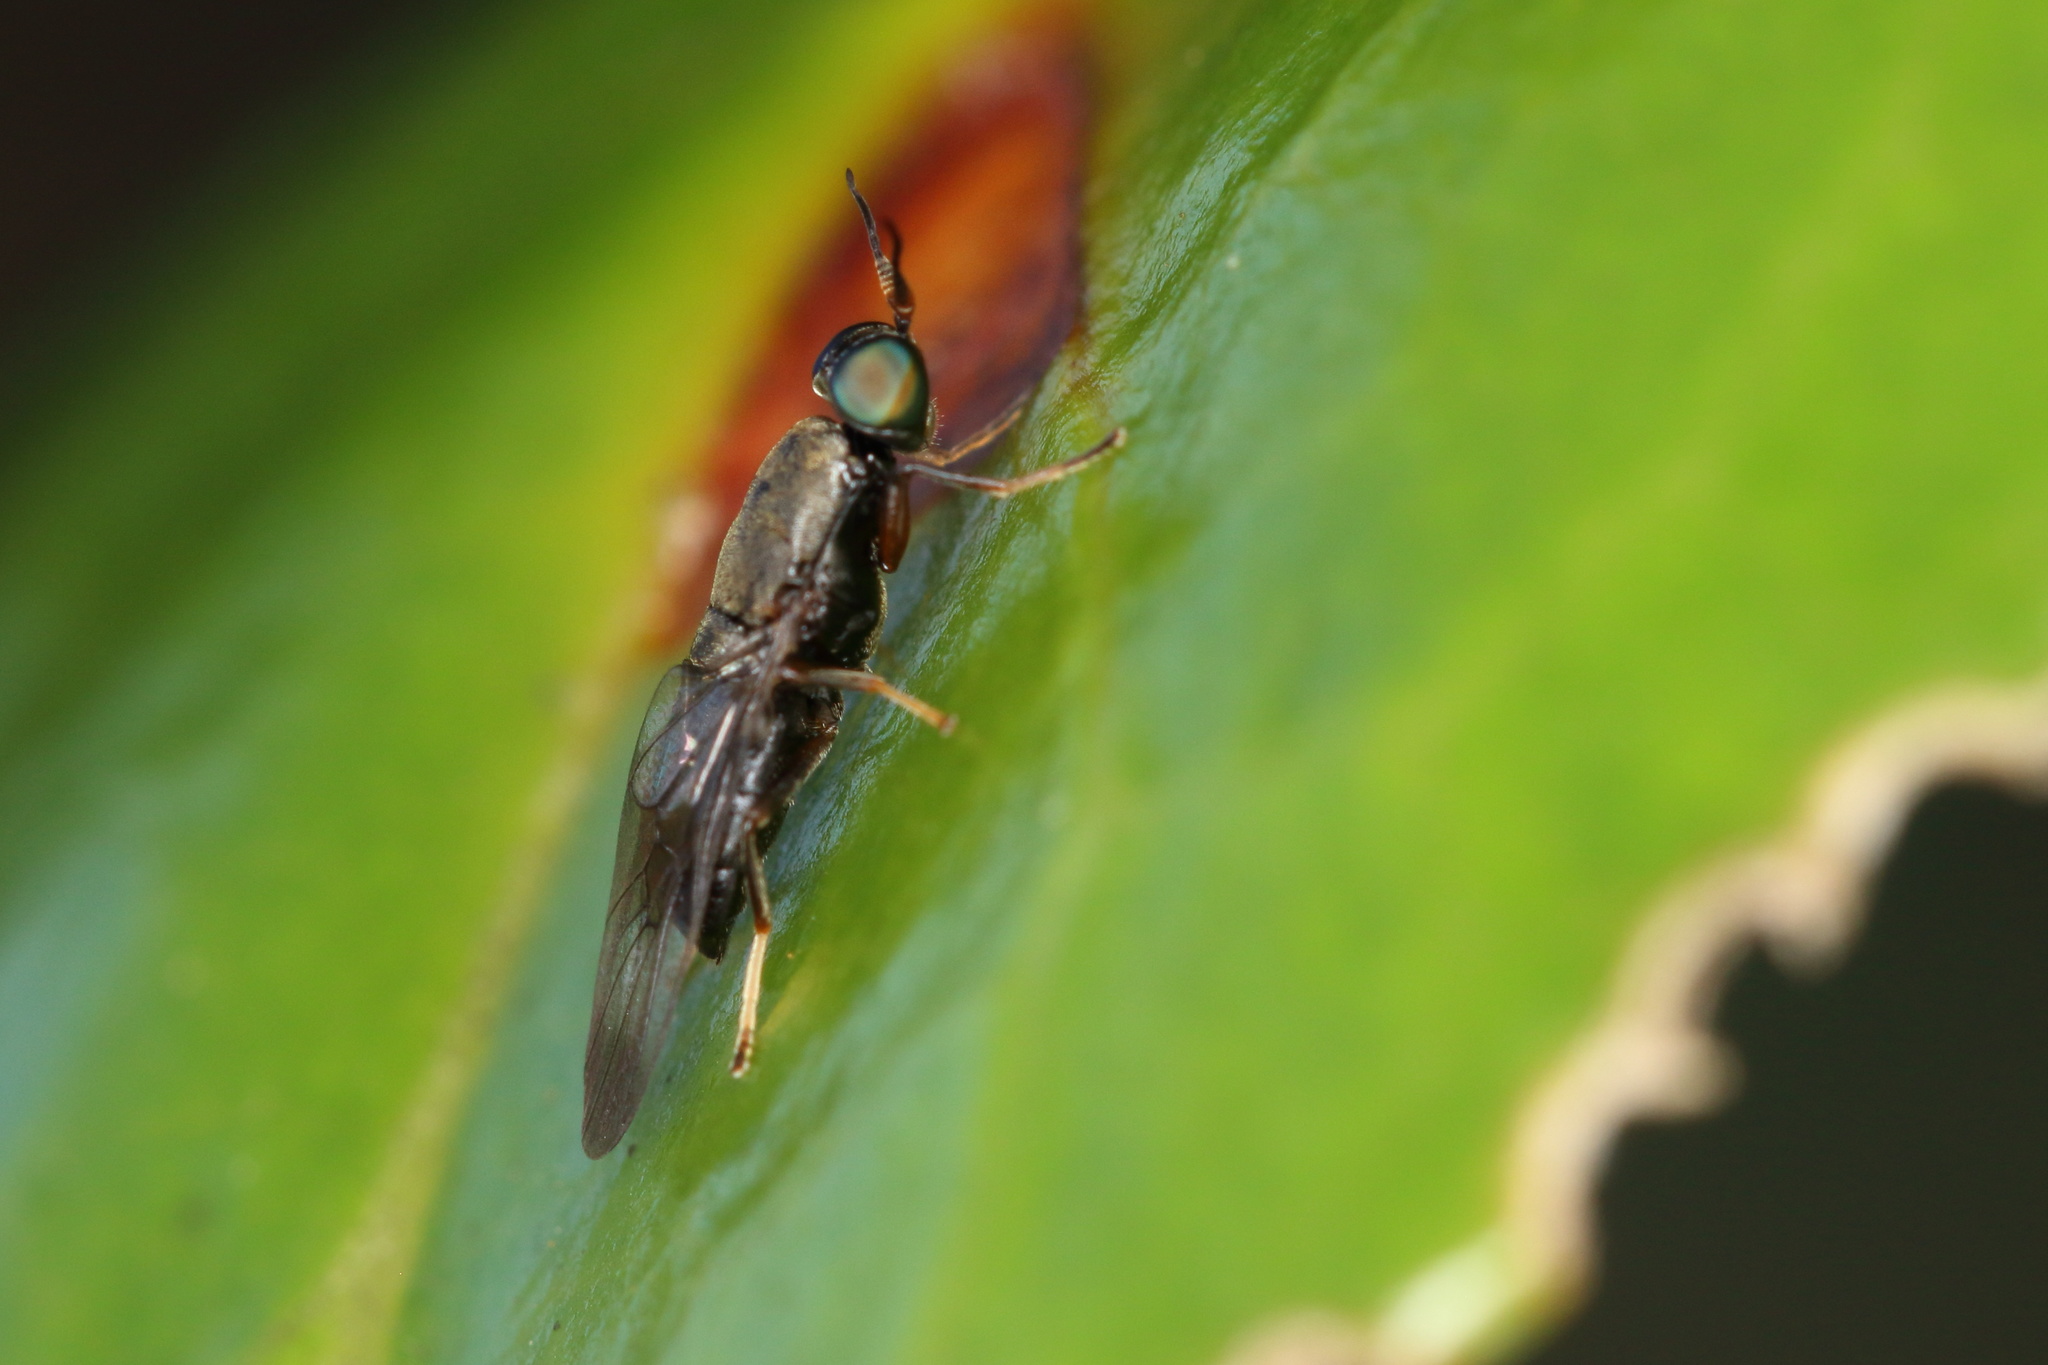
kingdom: Animalia
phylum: Arthropoda
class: Insecta
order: Diptera
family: Stratiomyidae
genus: Dysbiota
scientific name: Dysbiota peregrina
